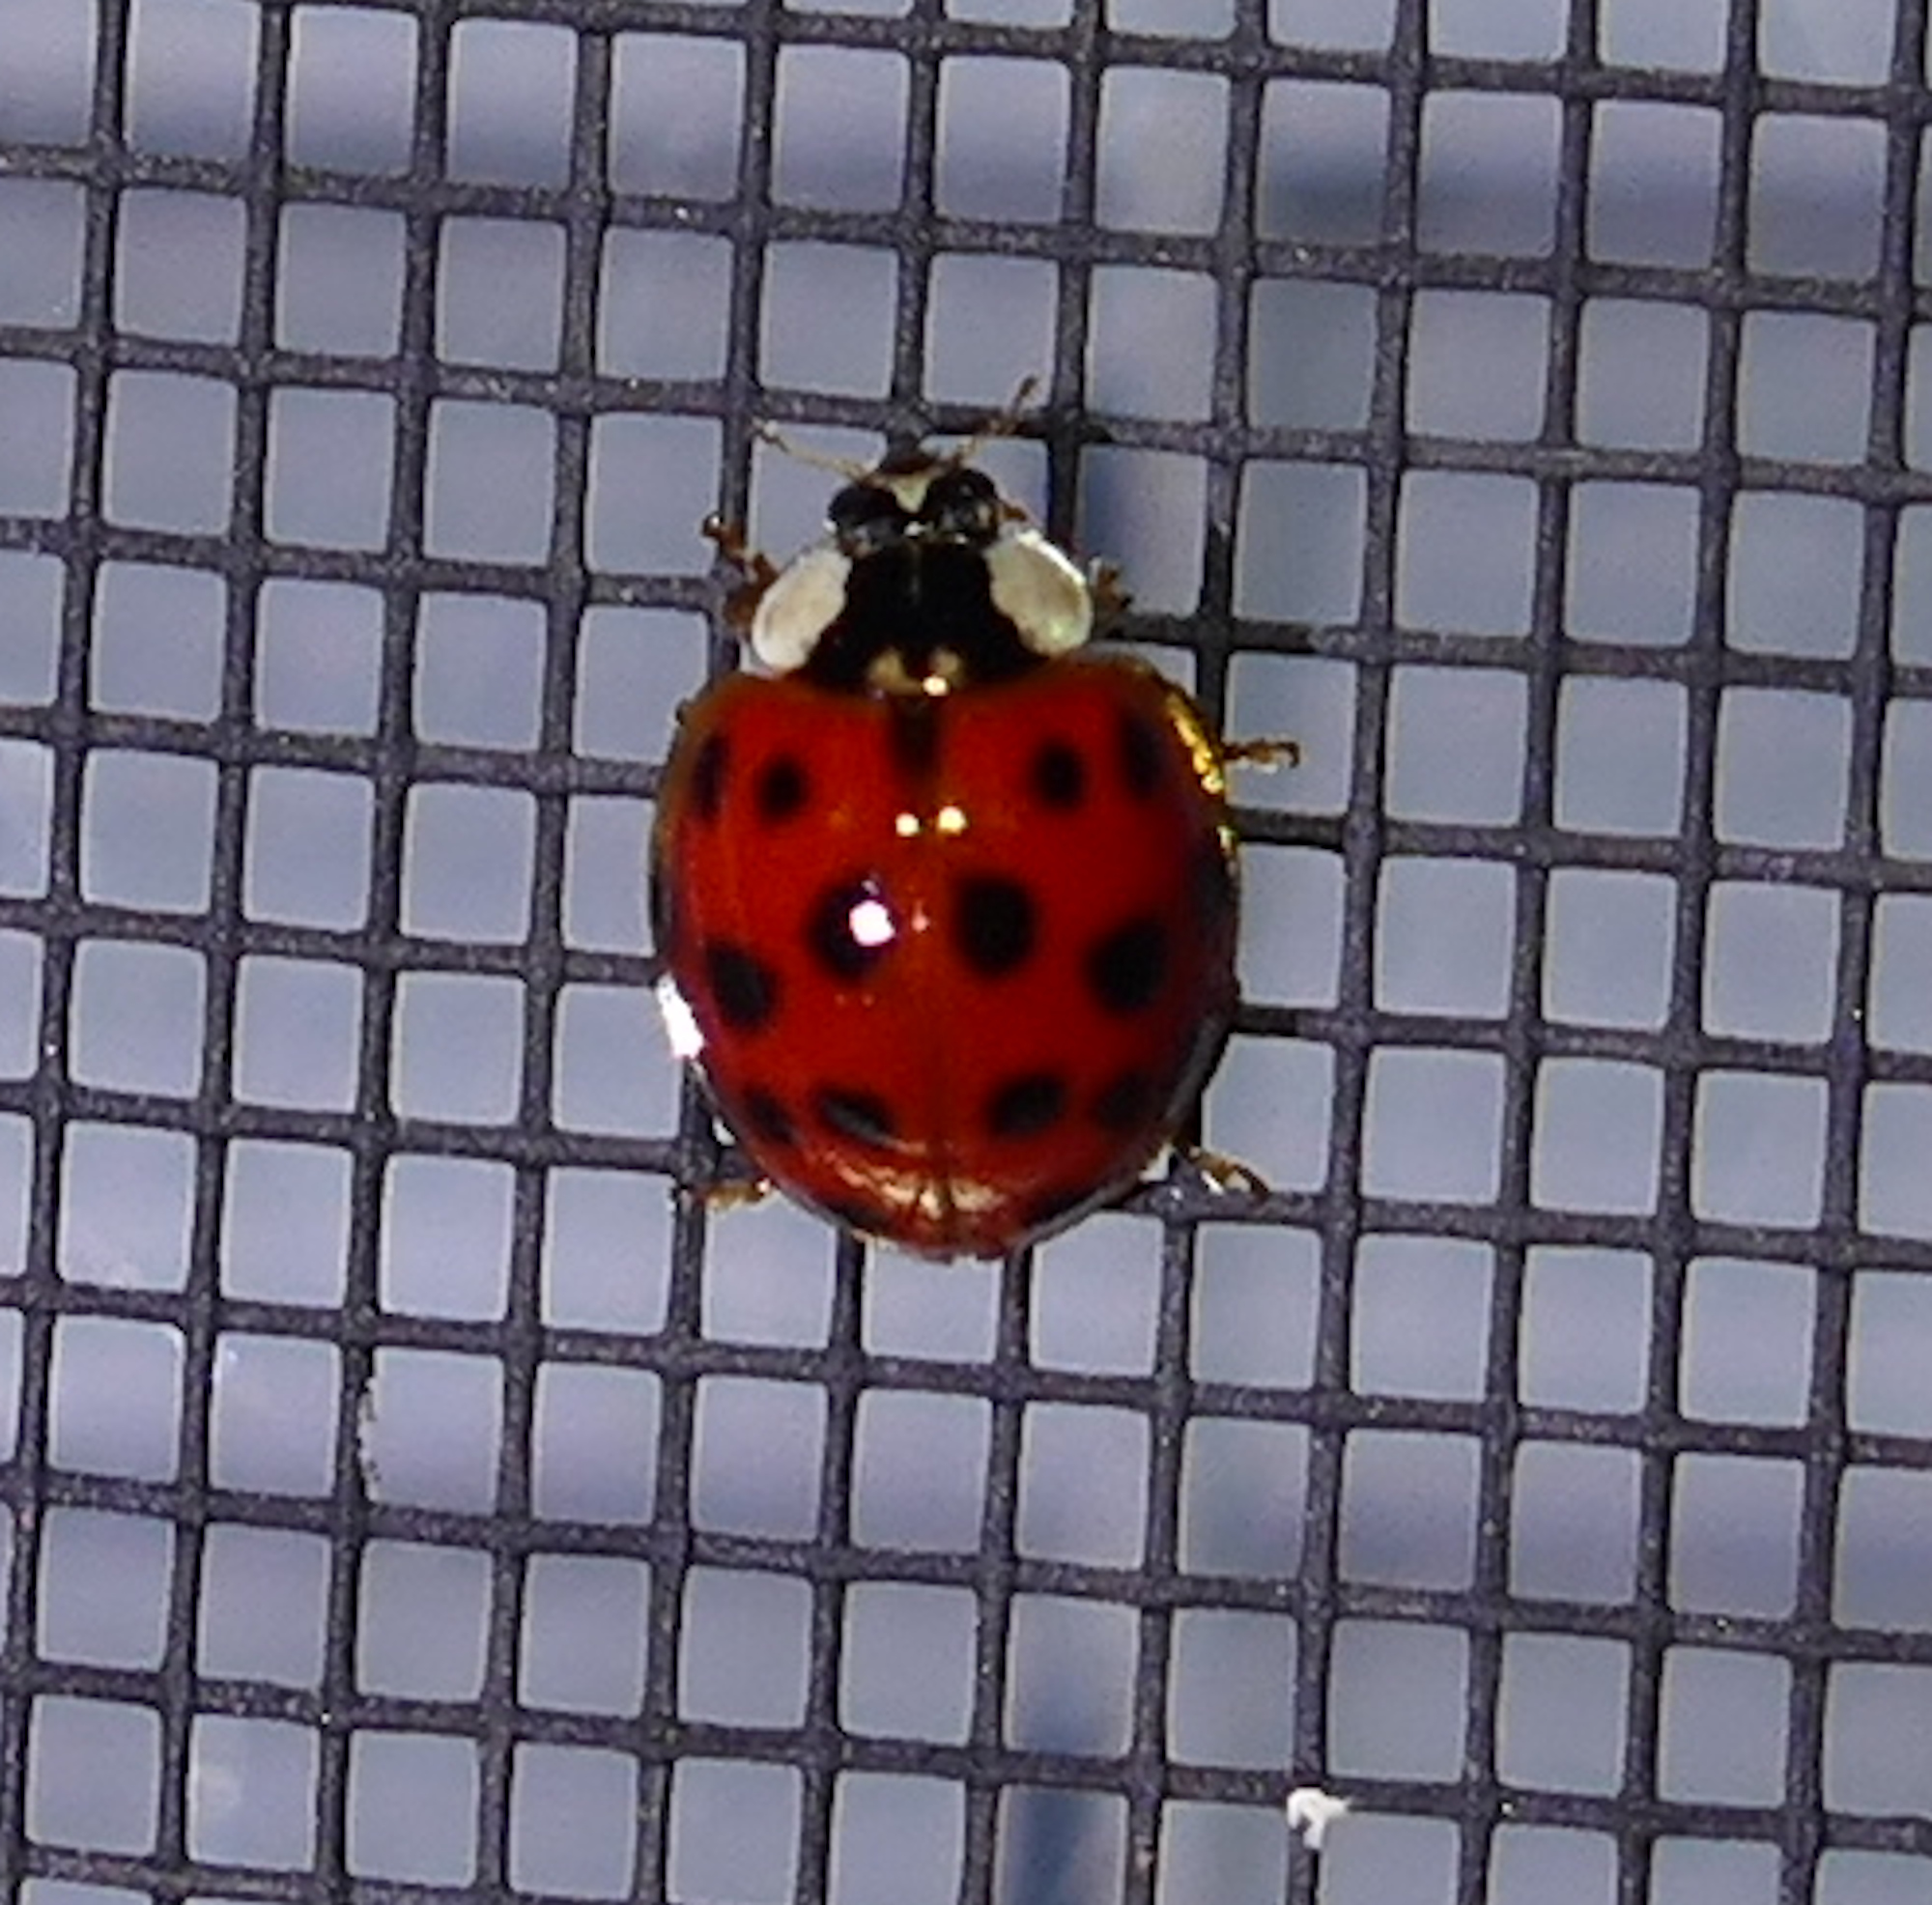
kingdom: Animalia
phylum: Arthropoda
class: Insecta
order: Coleoptera
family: Coccinellidae
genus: Harmonia
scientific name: Harmonia axyridis
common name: Harlequin ladybird
